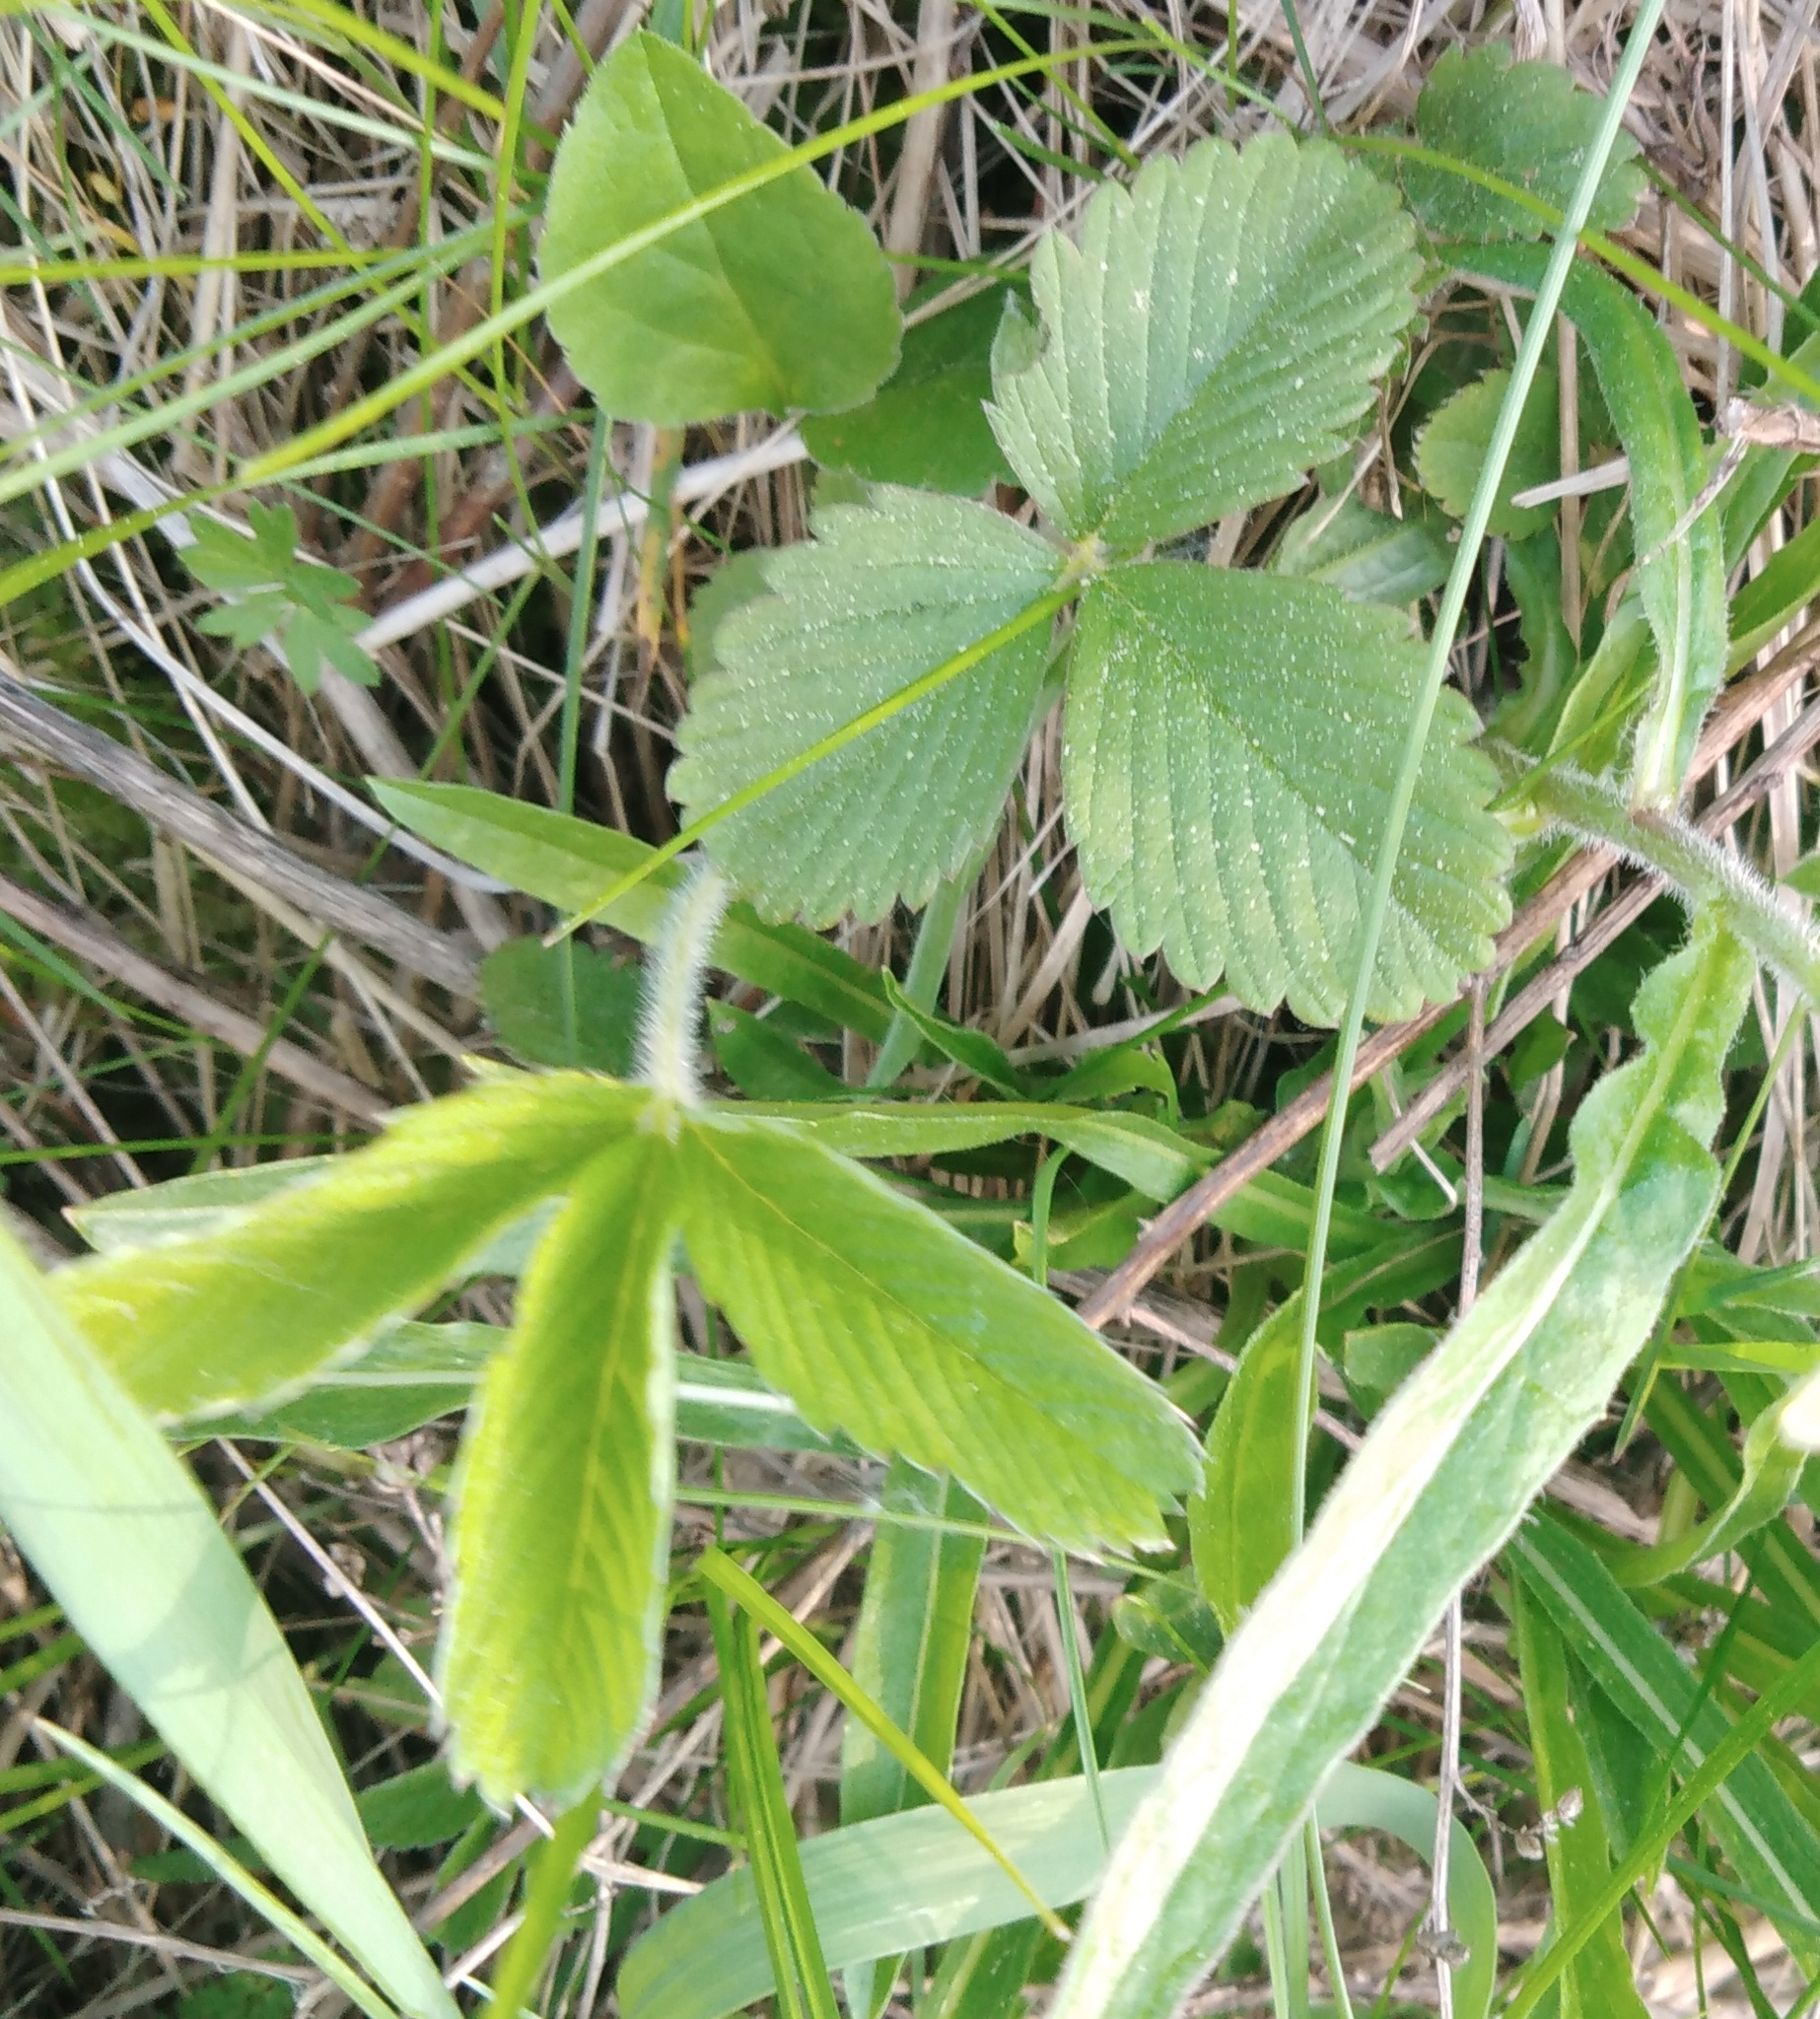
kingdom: Plantae
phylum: Tracheophyta
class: Magnoliopsida
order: Rosales
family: Rosaceae
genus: Fragaria
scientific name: Fragaria viridis
